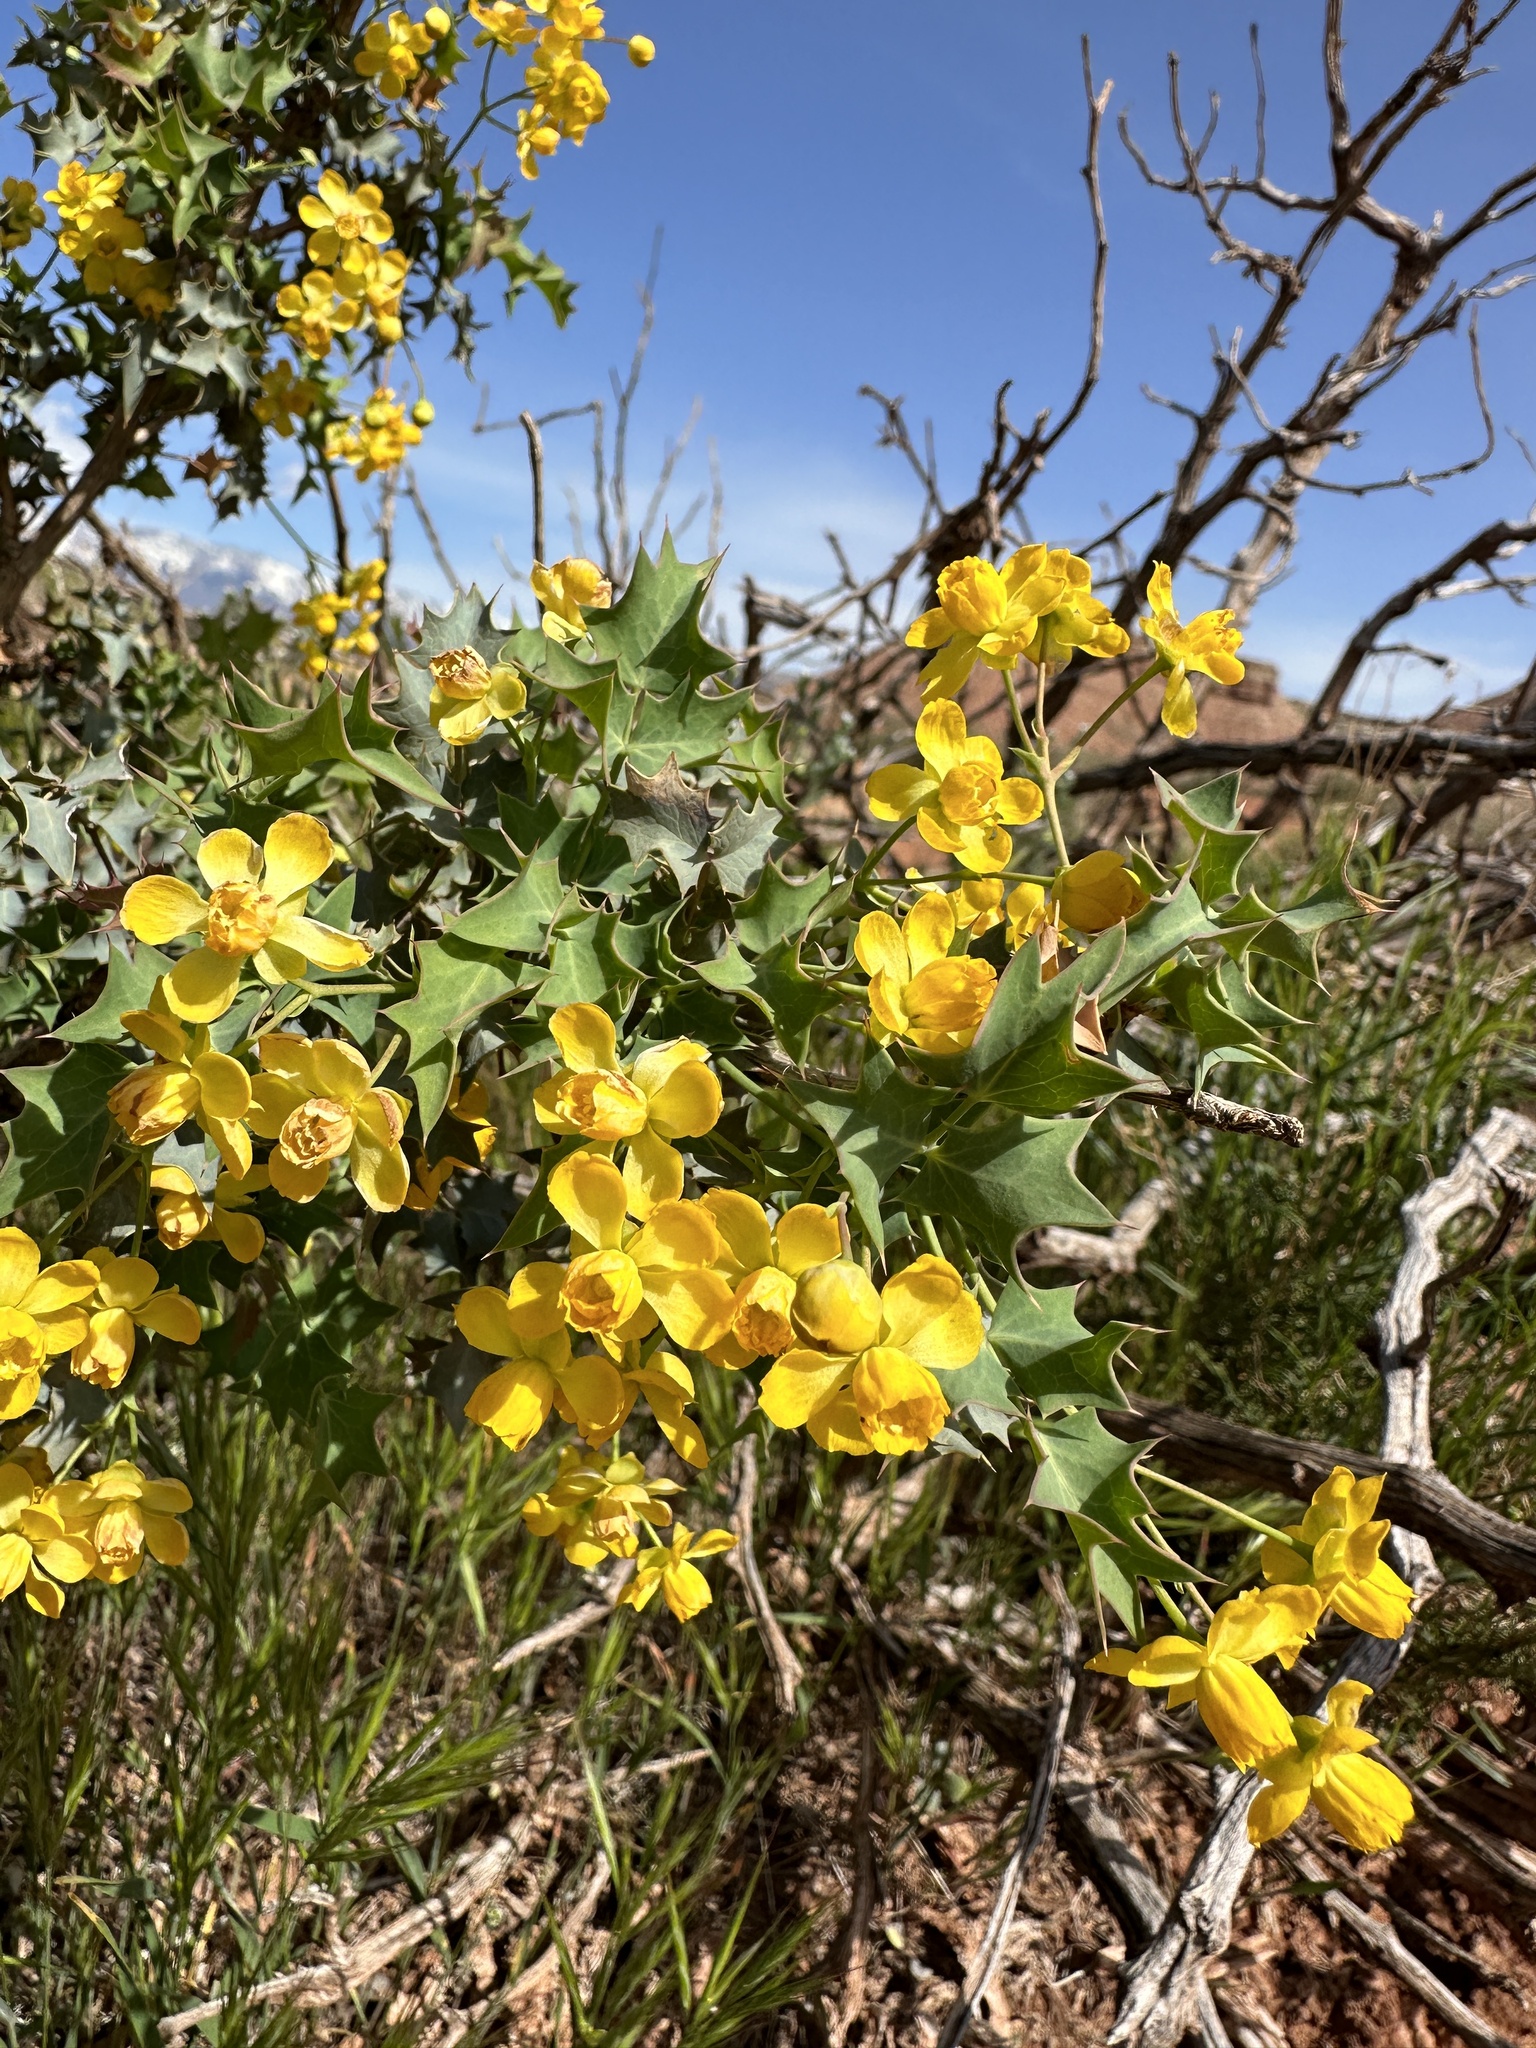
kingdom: Plantae
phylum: Tracheophyta
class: Magnoliopsida
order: Ranunculales
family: Berberidaceae
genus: Alloberberis
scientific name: Alloberberis fremontii
